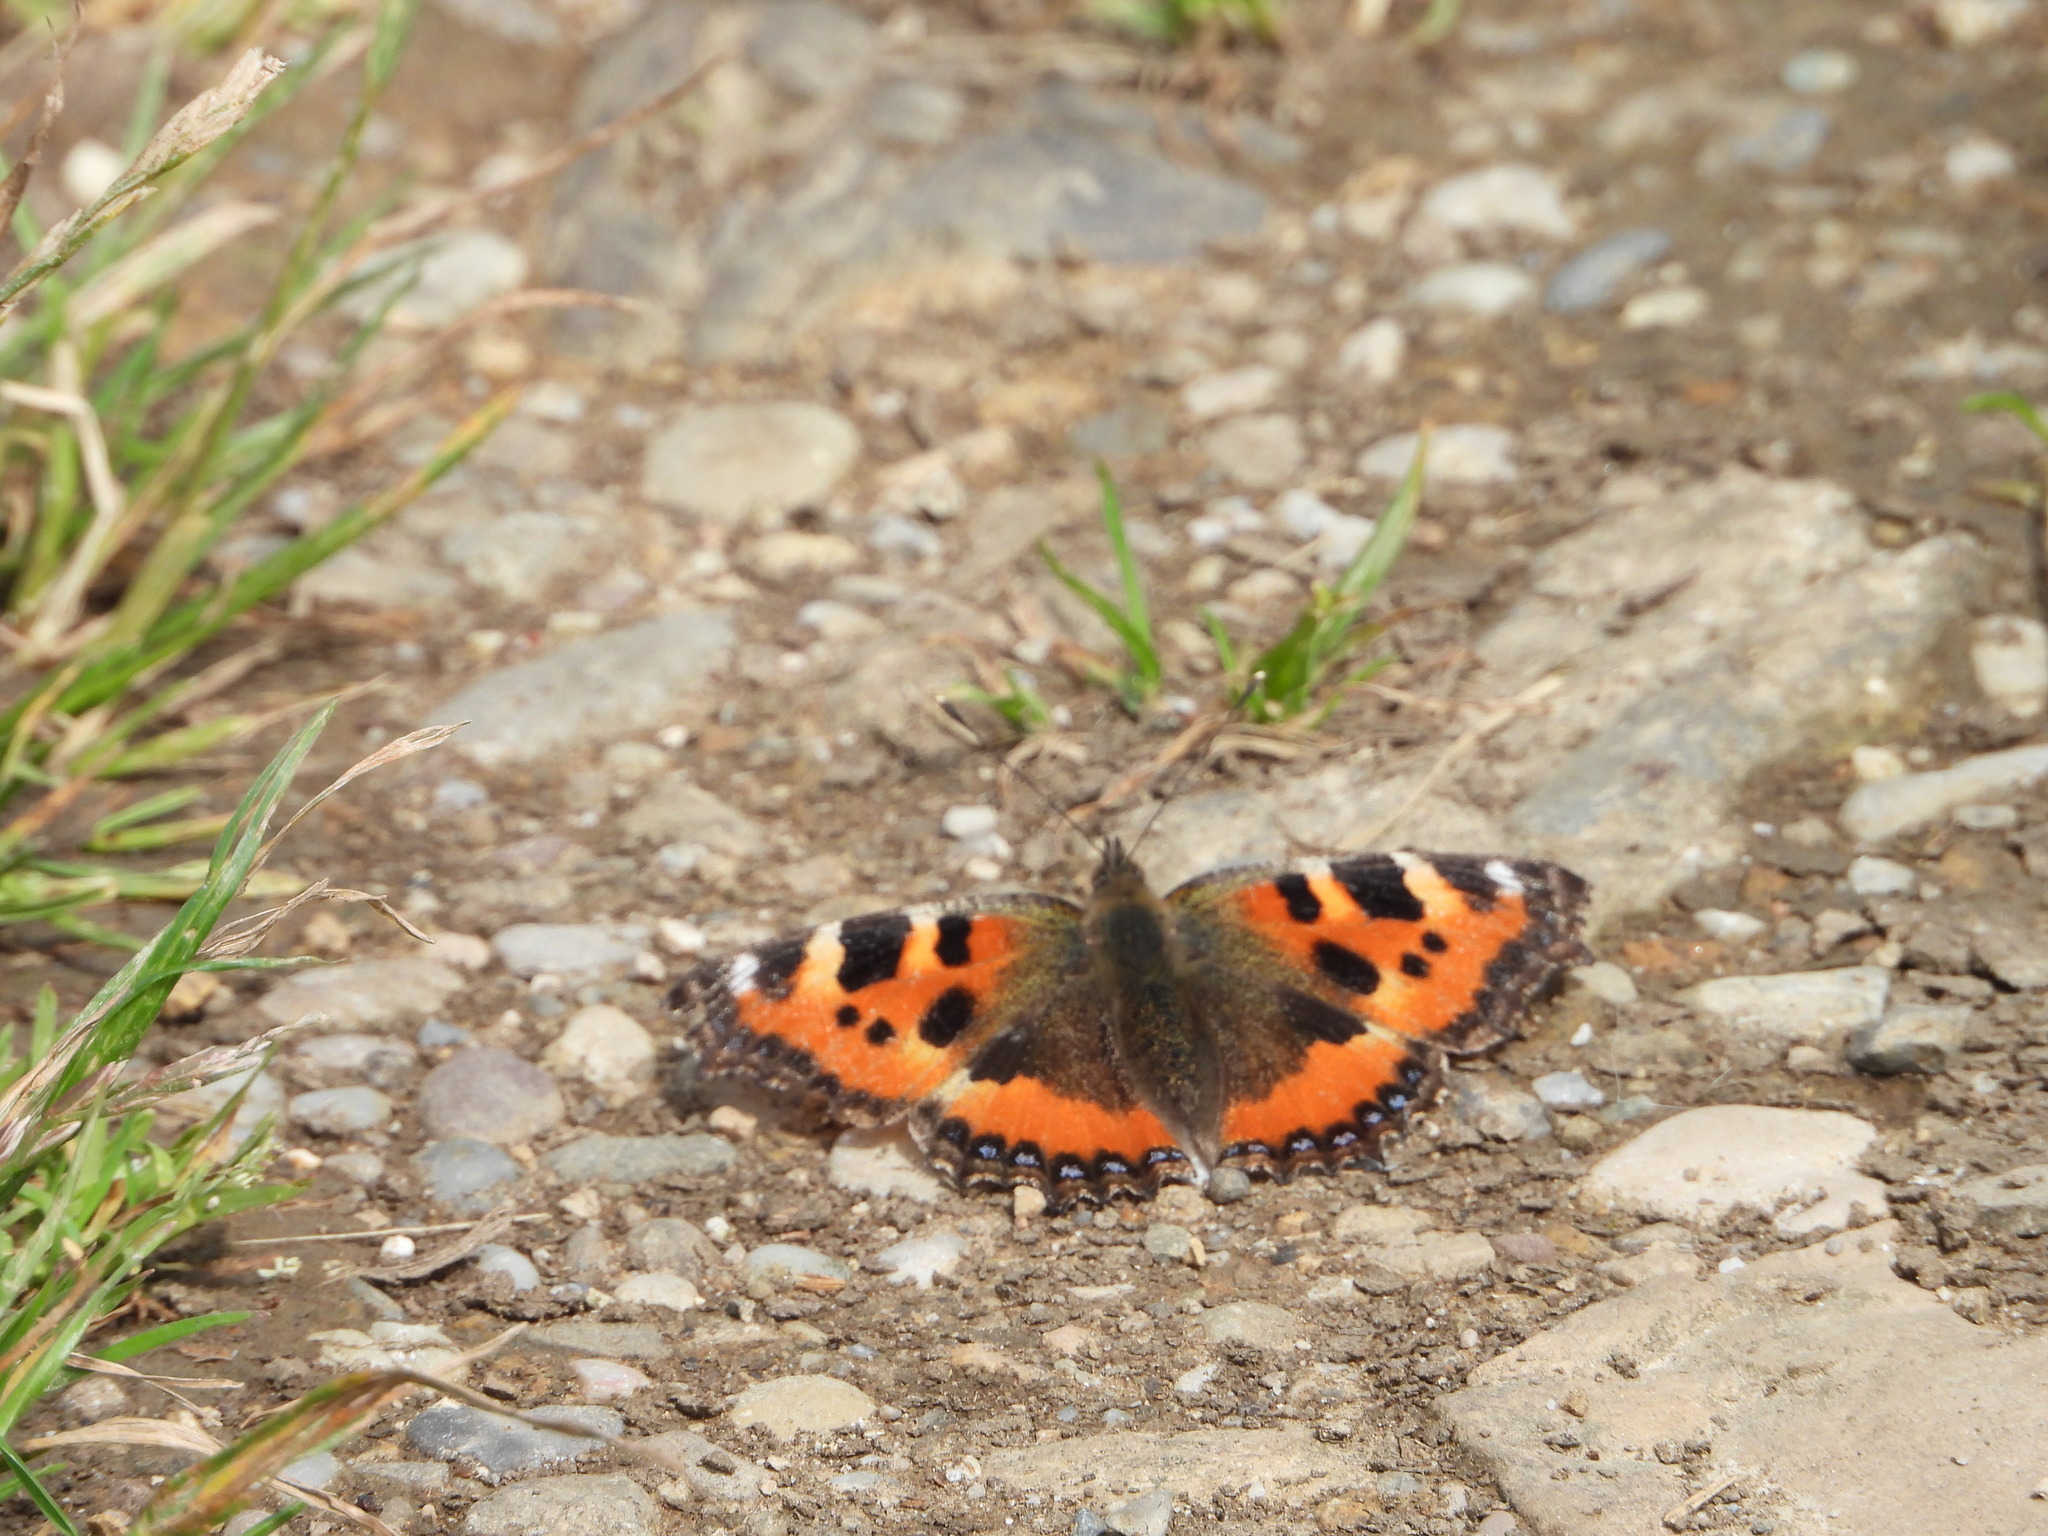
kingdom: Animalia
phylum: Arthropoda
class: Insecta
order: Lepidoptera
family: Nymphalidae
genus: Aglais
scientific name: Aglais urticae
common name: Small tortoiseshell
